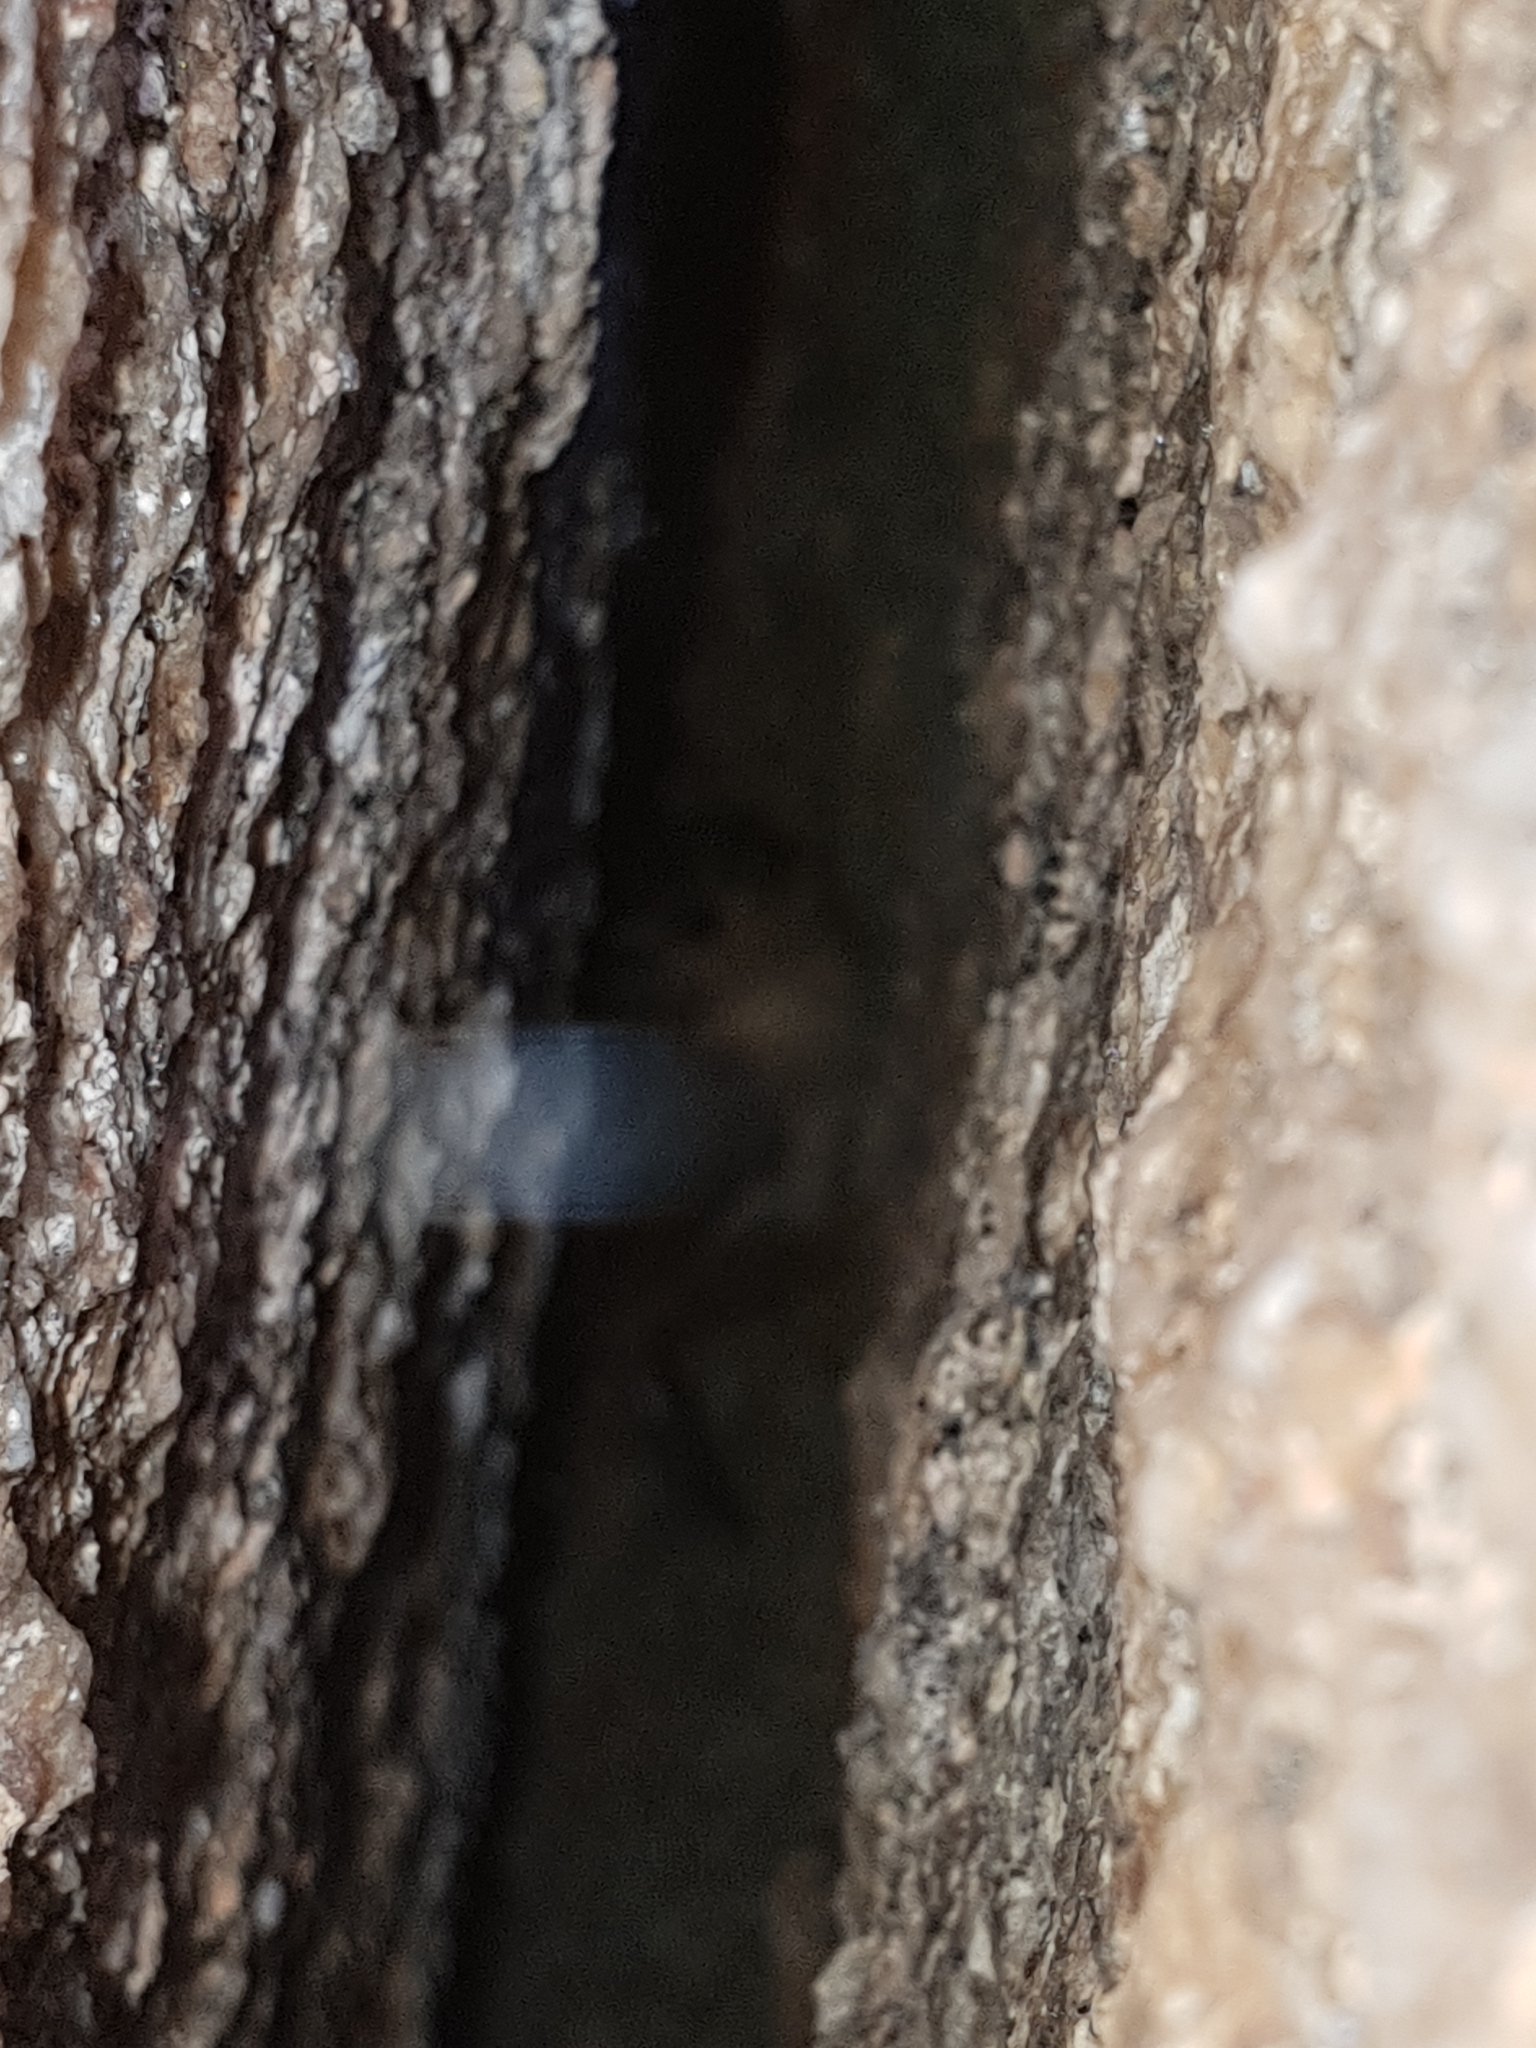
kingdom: Animalia
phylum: Chordata
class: Aves
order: Passeriformes
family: Atrichornithidae
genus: Atrichornis
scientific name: Atrichornis clamosus
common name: Noisy scrubbird
